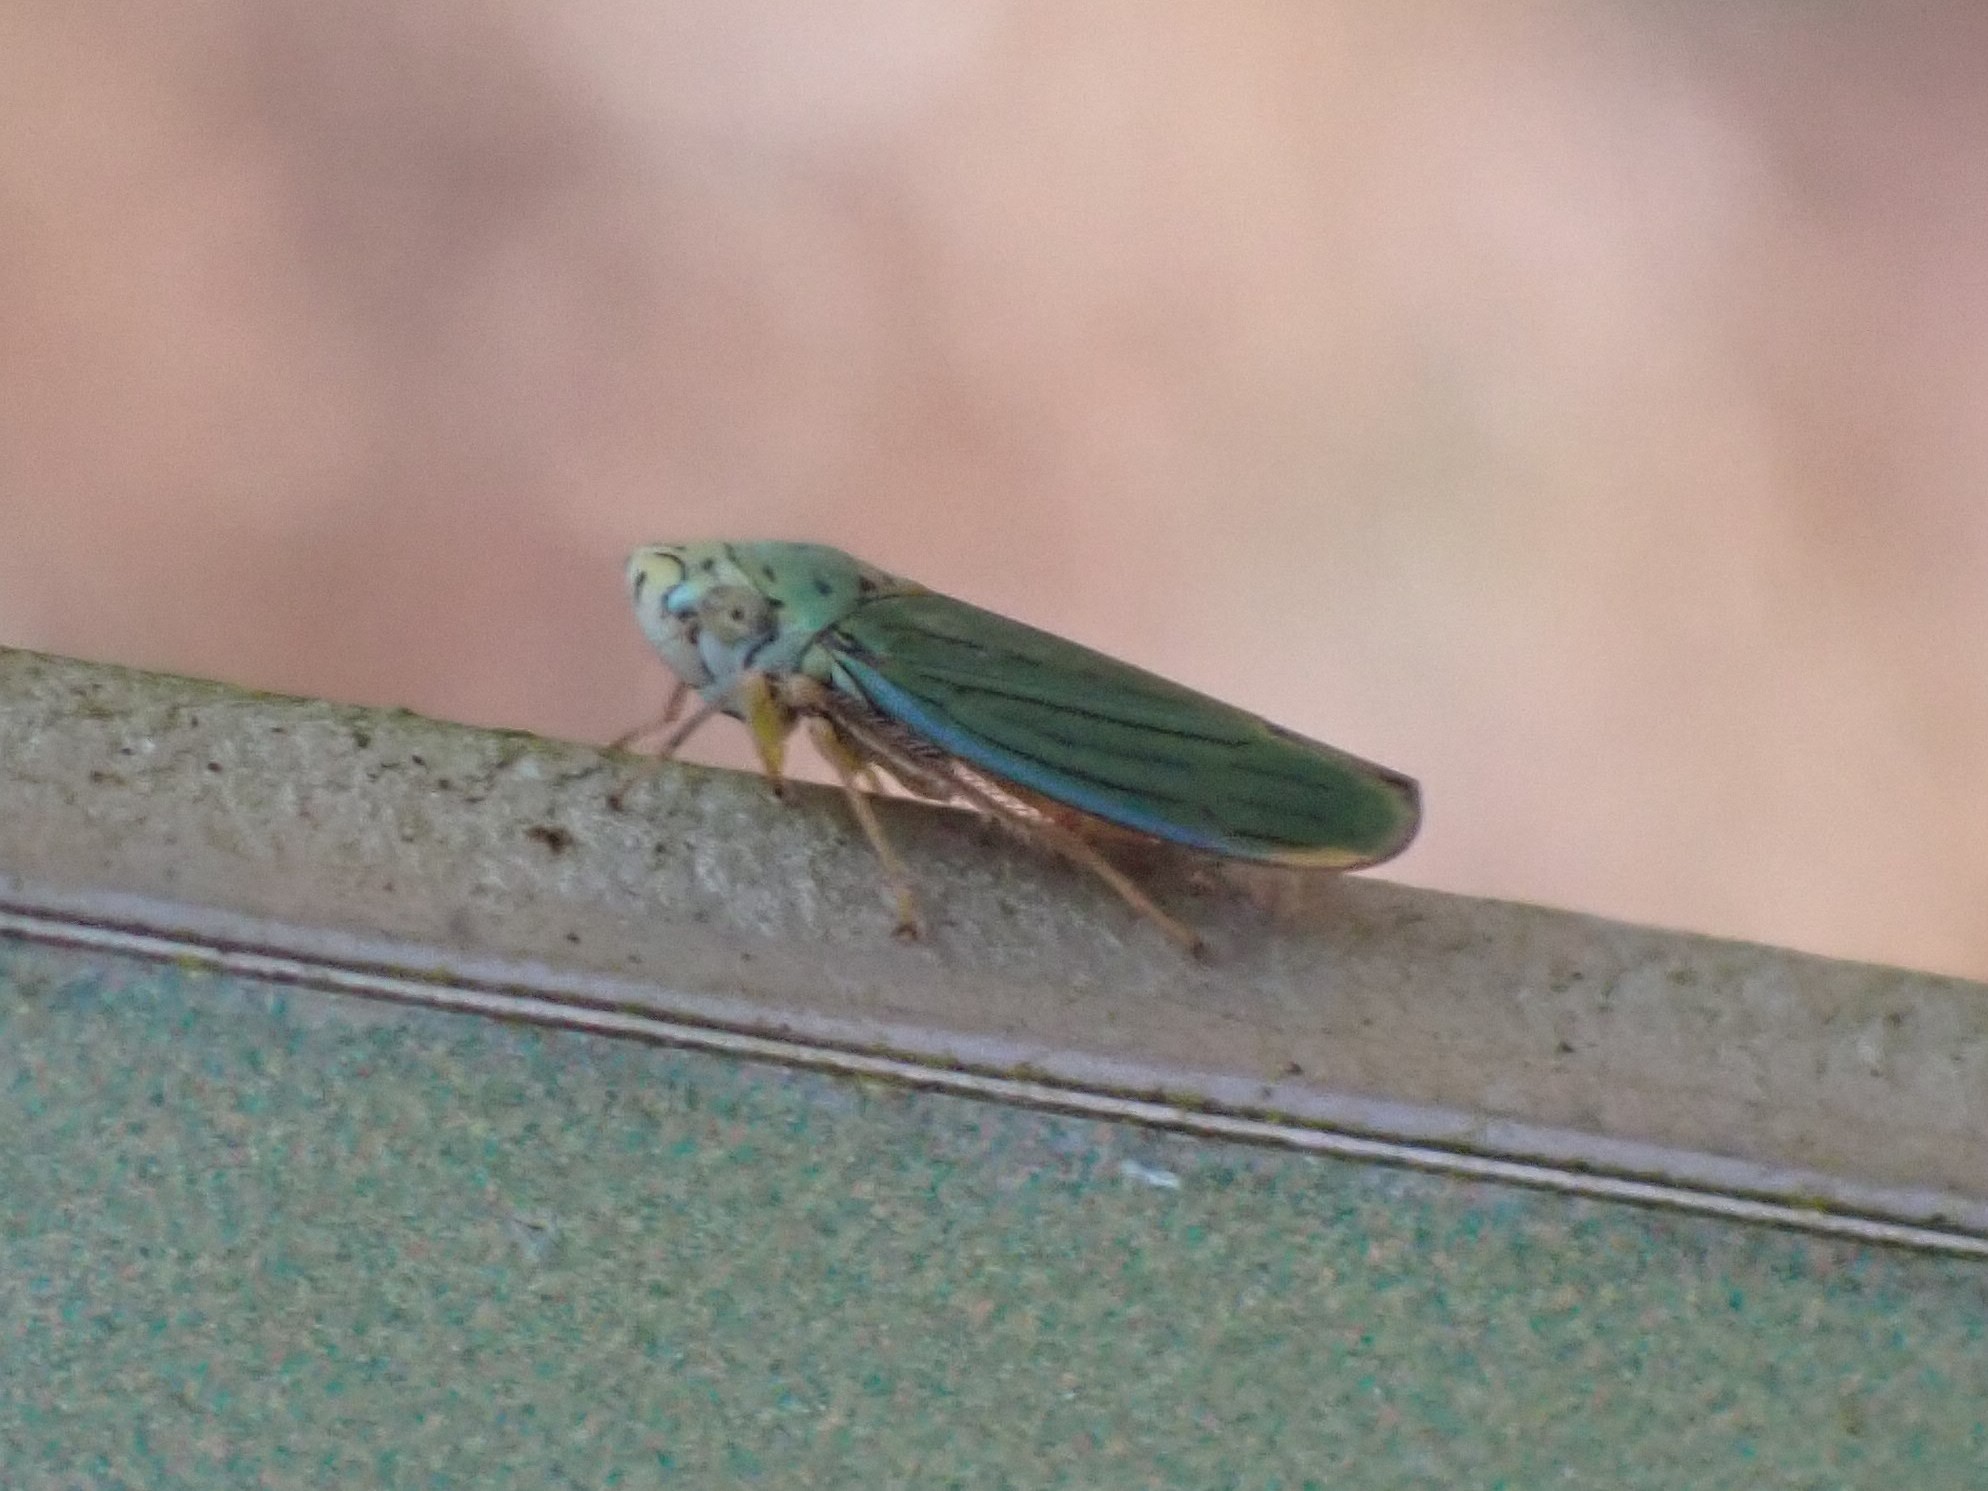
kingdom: Animalia
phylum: Arthropoda
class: Insecta
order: Hemiptera
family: Cicadellidae
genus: Graphocephala
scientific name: Graphocephala atropunctata
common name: Blue-green sharpshooter
